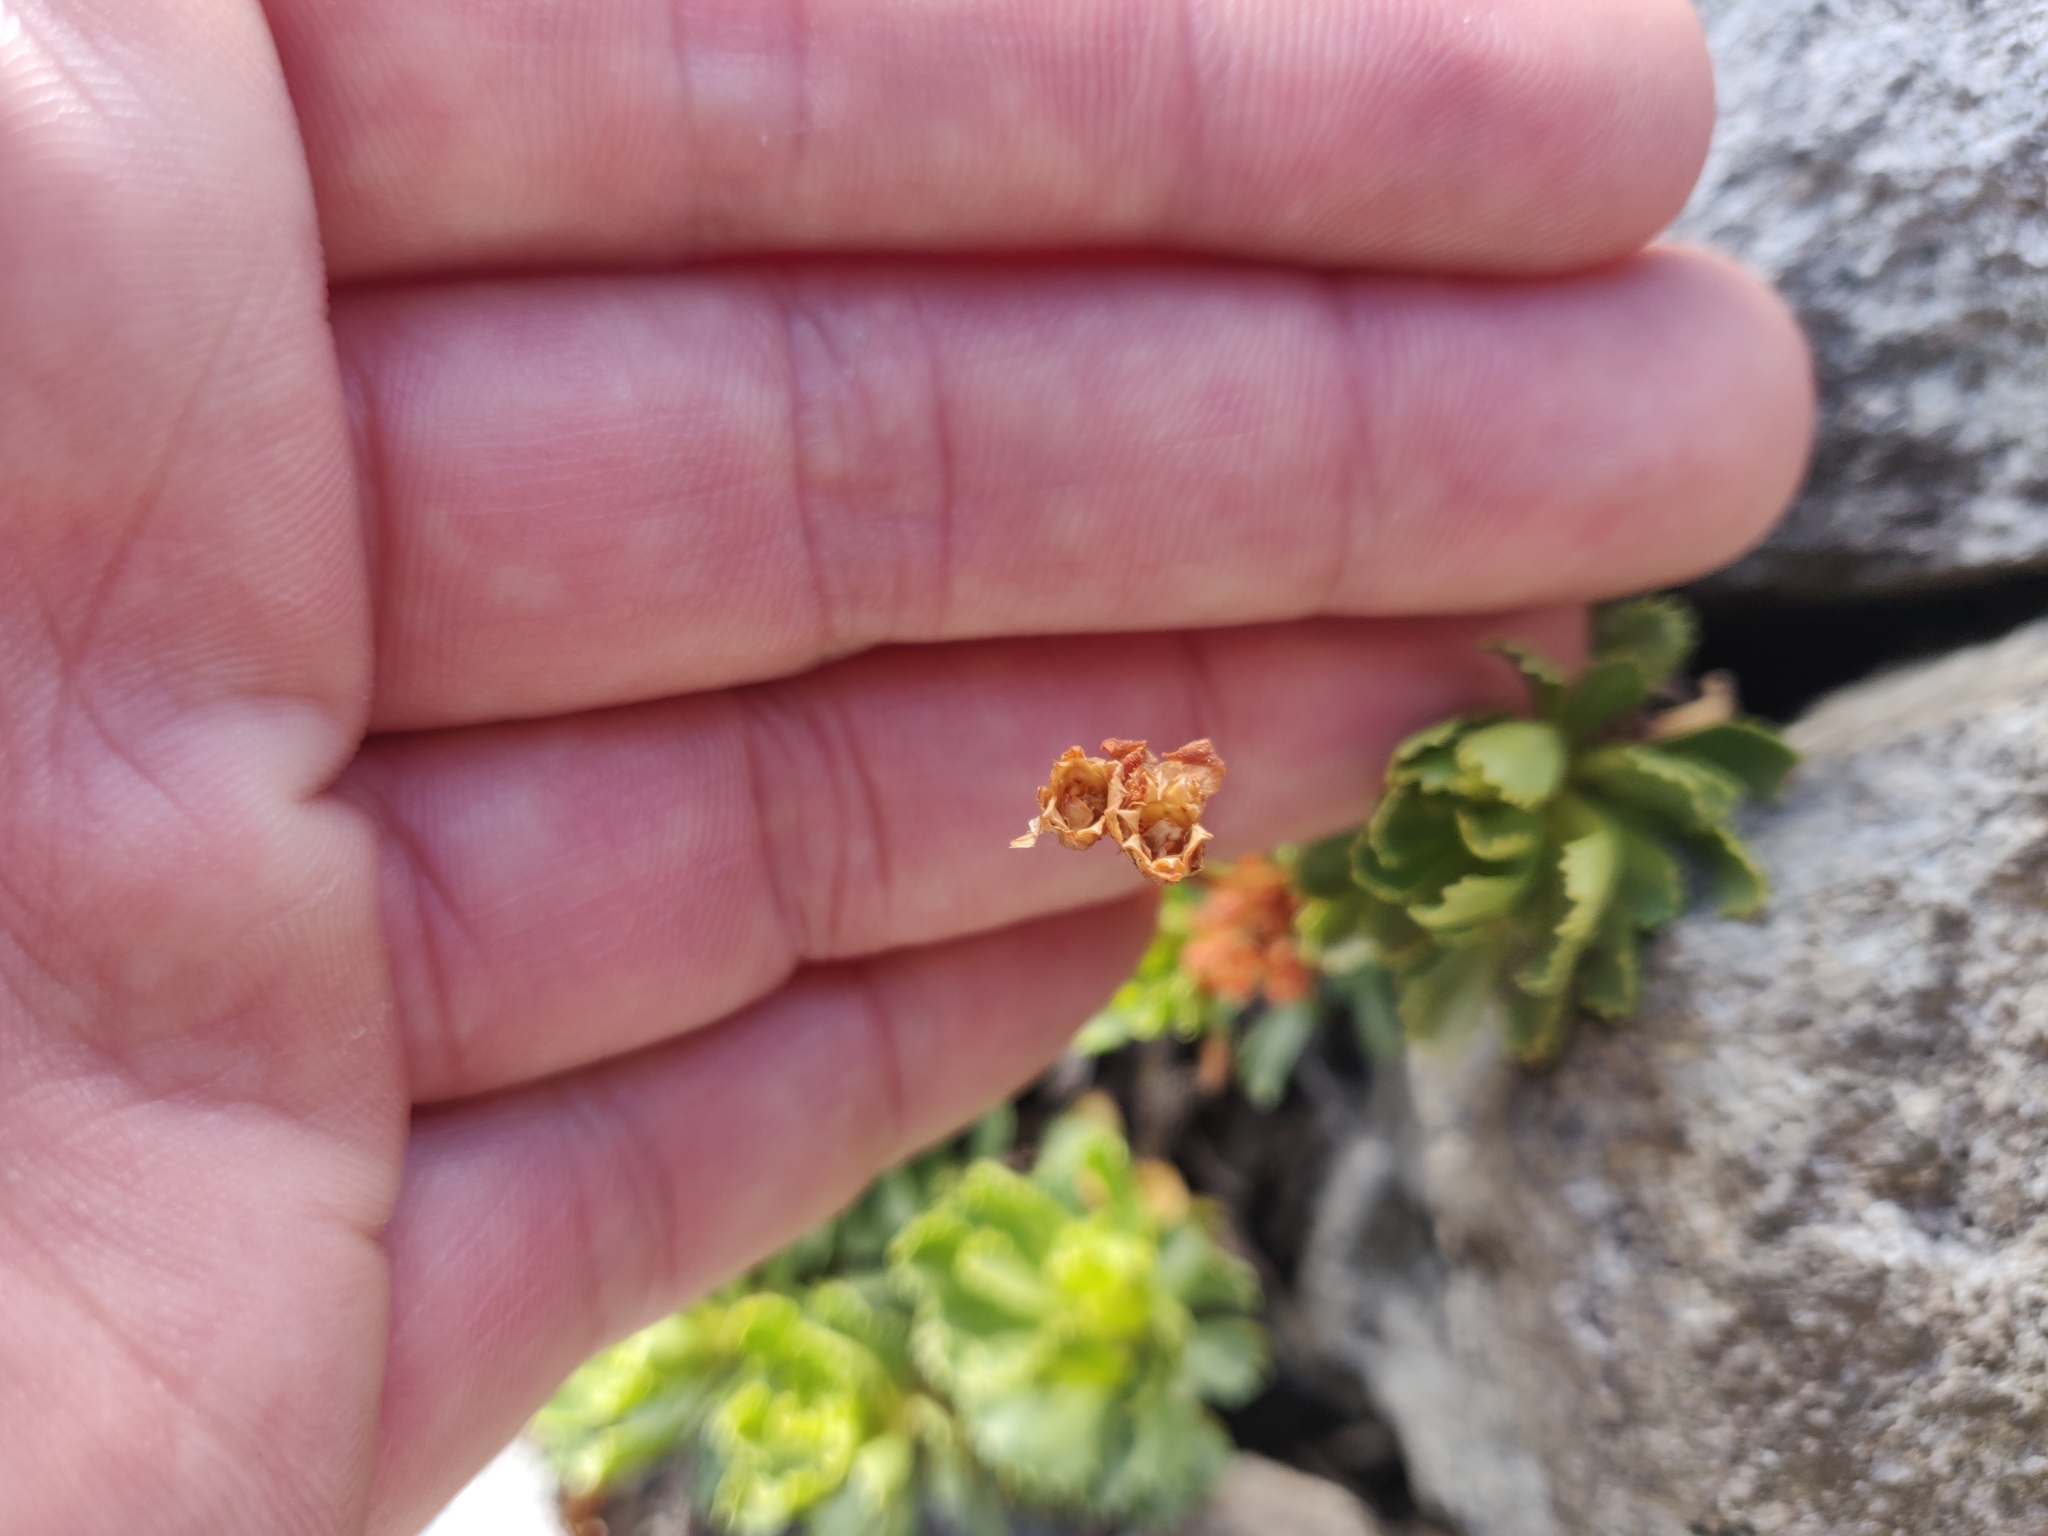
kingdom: Plantae
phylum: Tracheophyta
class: Magnoliopsida
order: Ericales
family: Primulaceae
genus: Primula
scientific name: Primula suffrutescens
